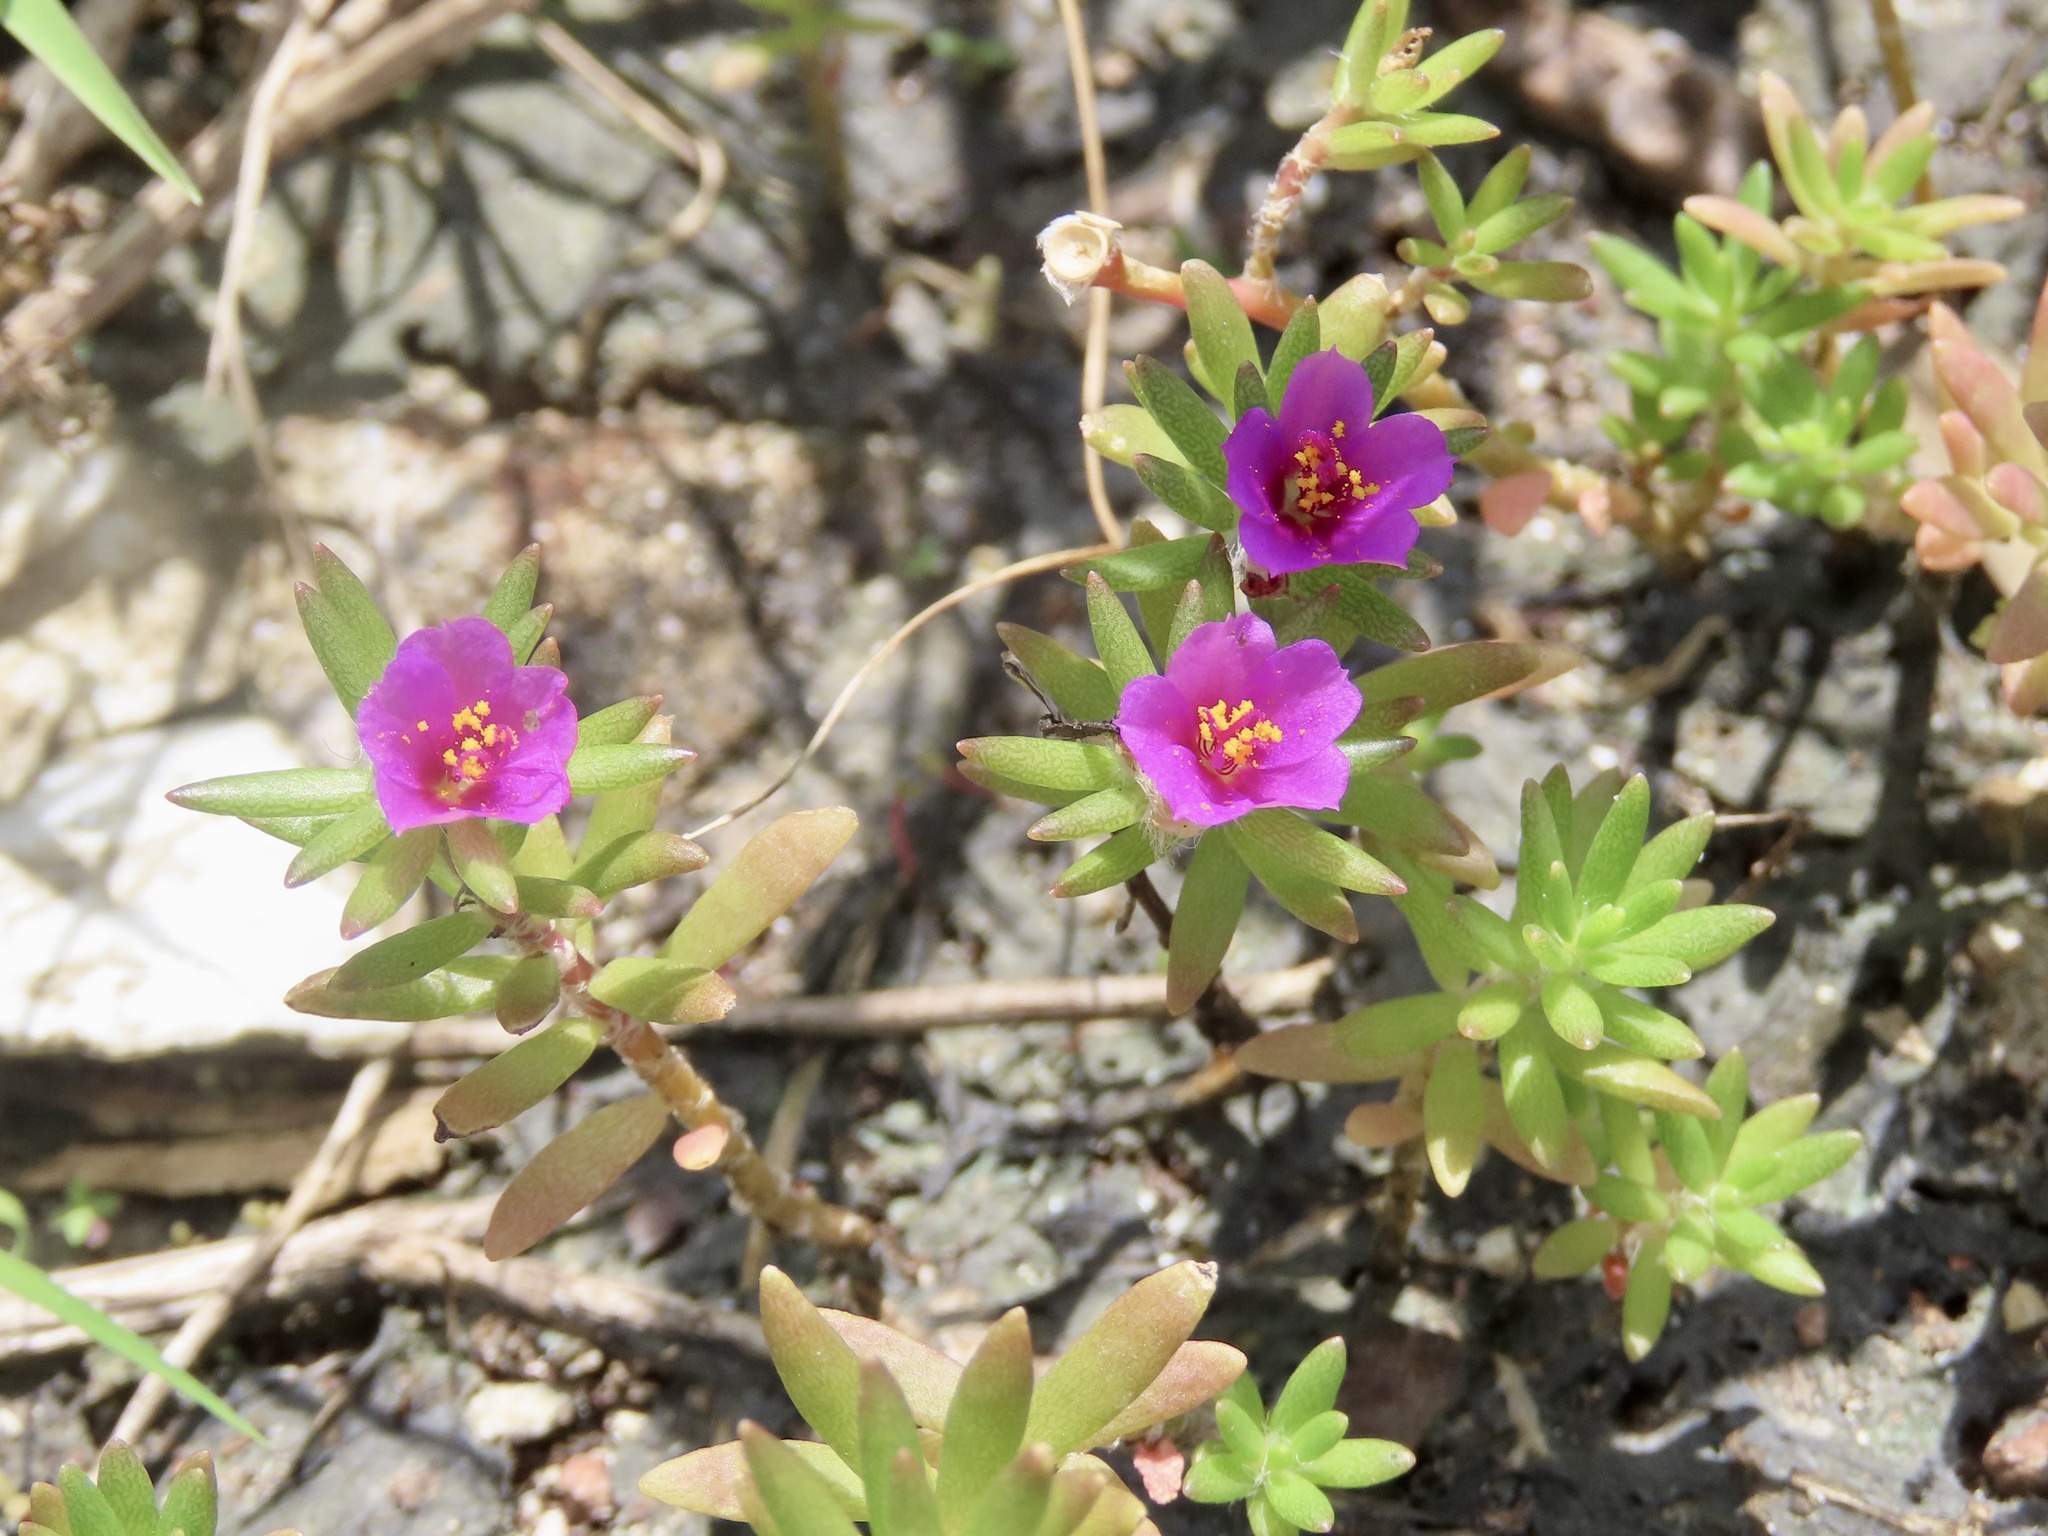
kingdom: Plantae
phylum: Tracheophyta
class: Magnoliopsida
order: Caryophyllales
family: Portulacaceae
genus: Portulaca
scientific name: Portulaca pilosa
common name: Kiss me quick
